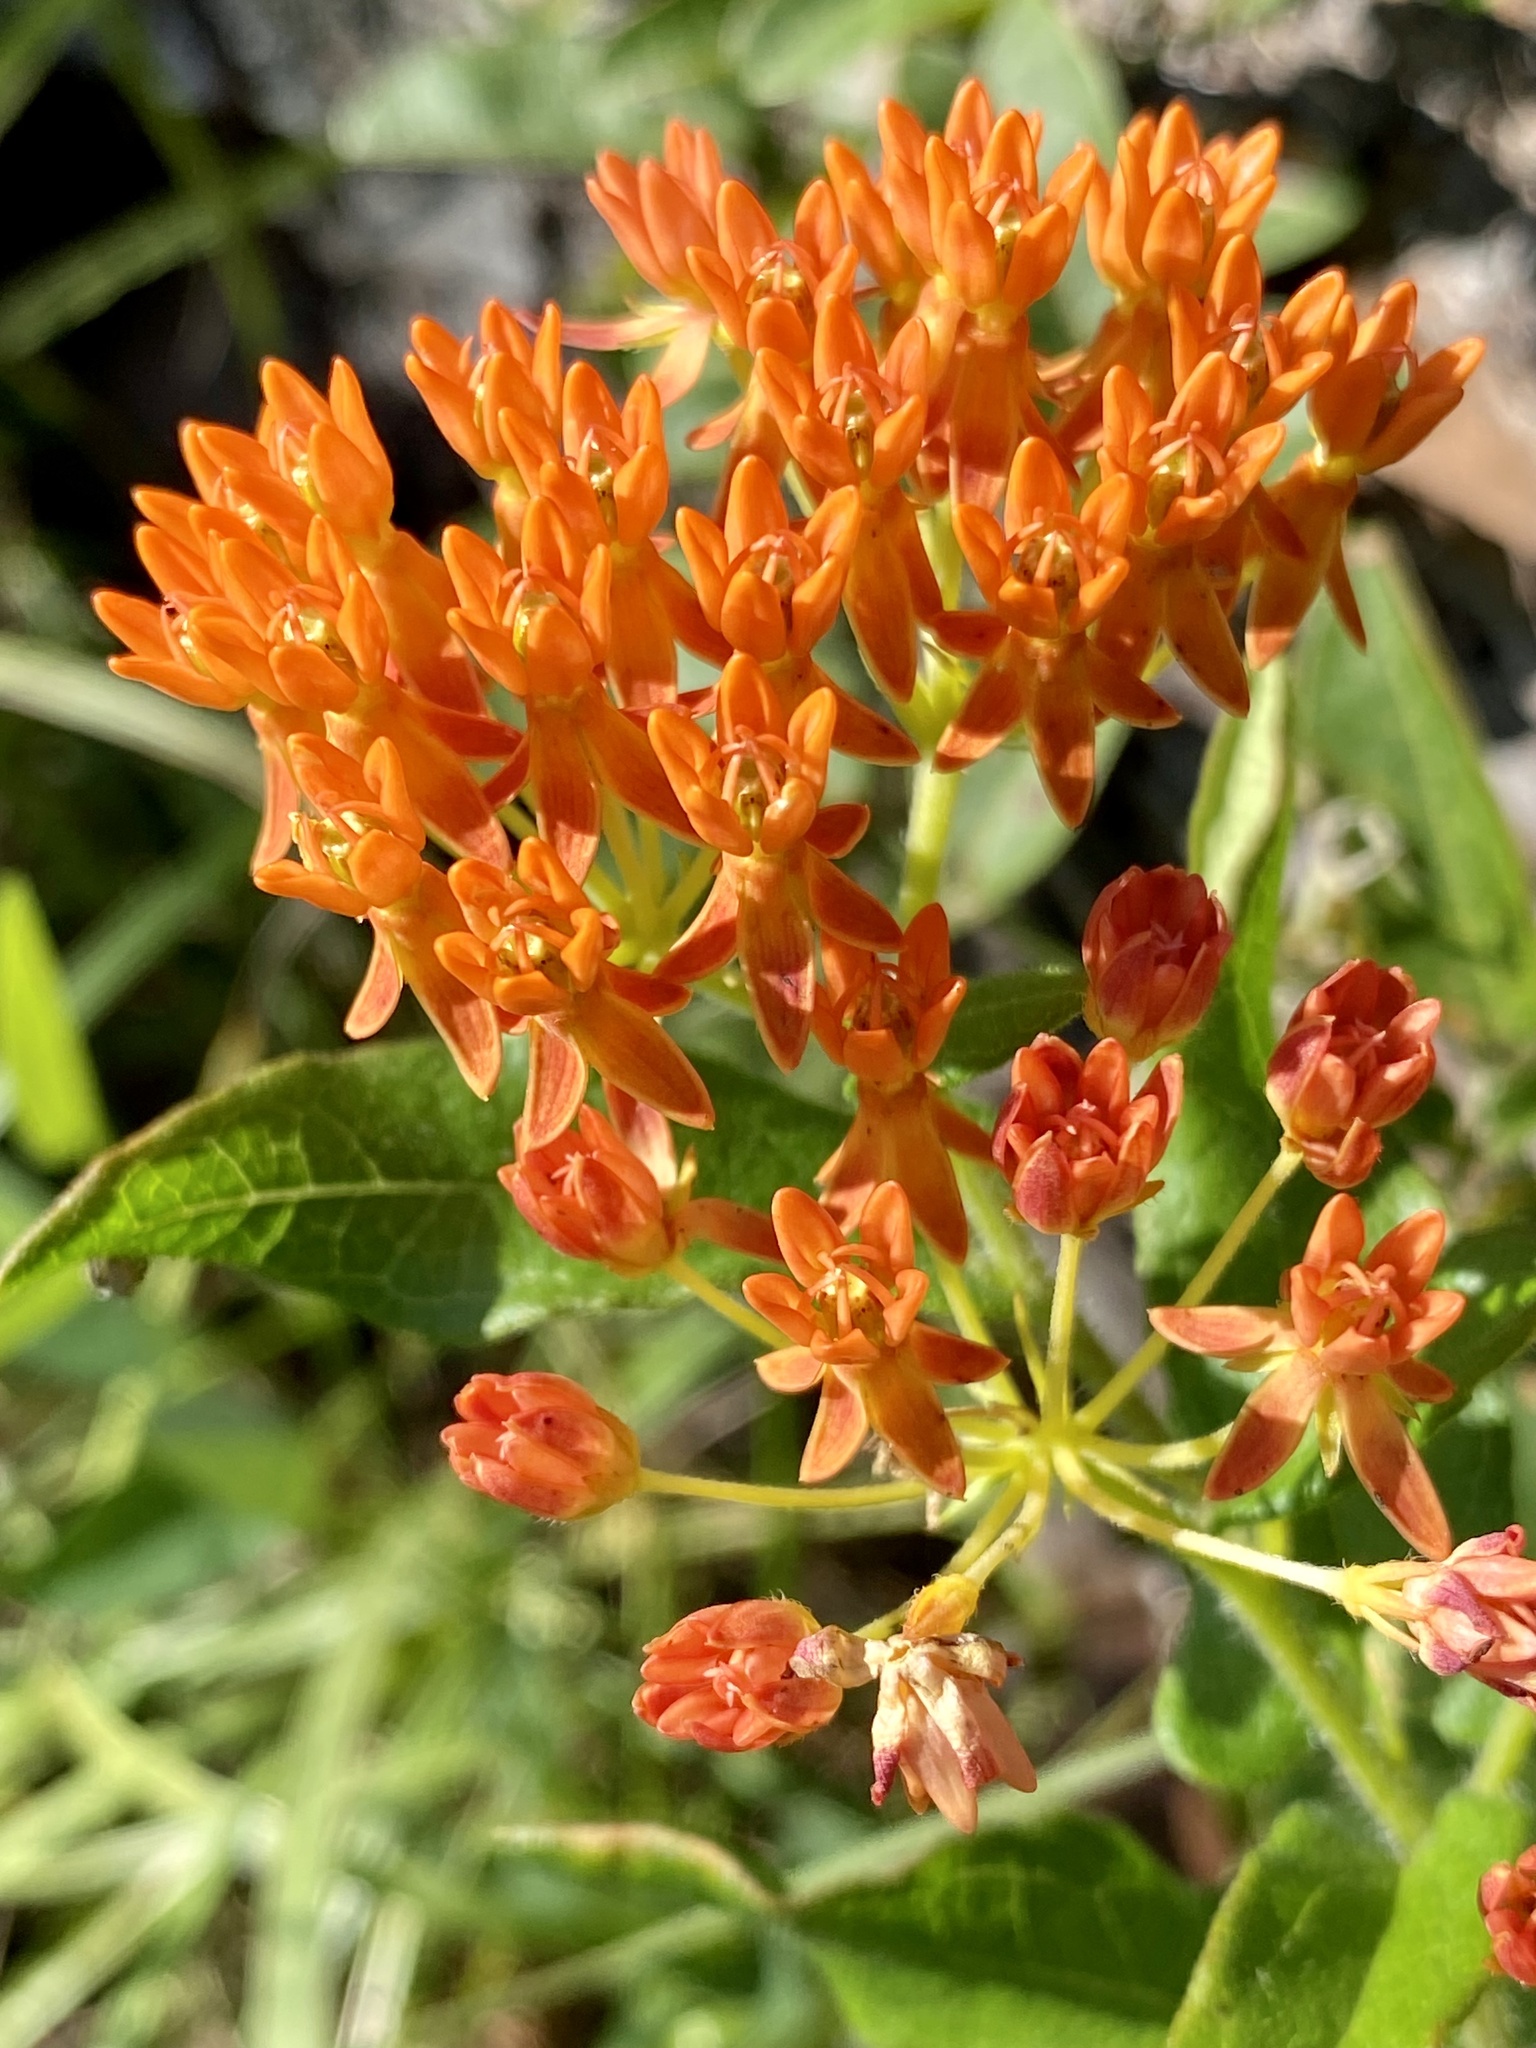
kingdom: Plantae
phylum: Tracheophyta
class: Magnoliopsida
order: Gentianales
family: Apocynaceae
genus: Asclepias
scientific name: Asclepias tuberosa
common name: Butterfly milkweed
